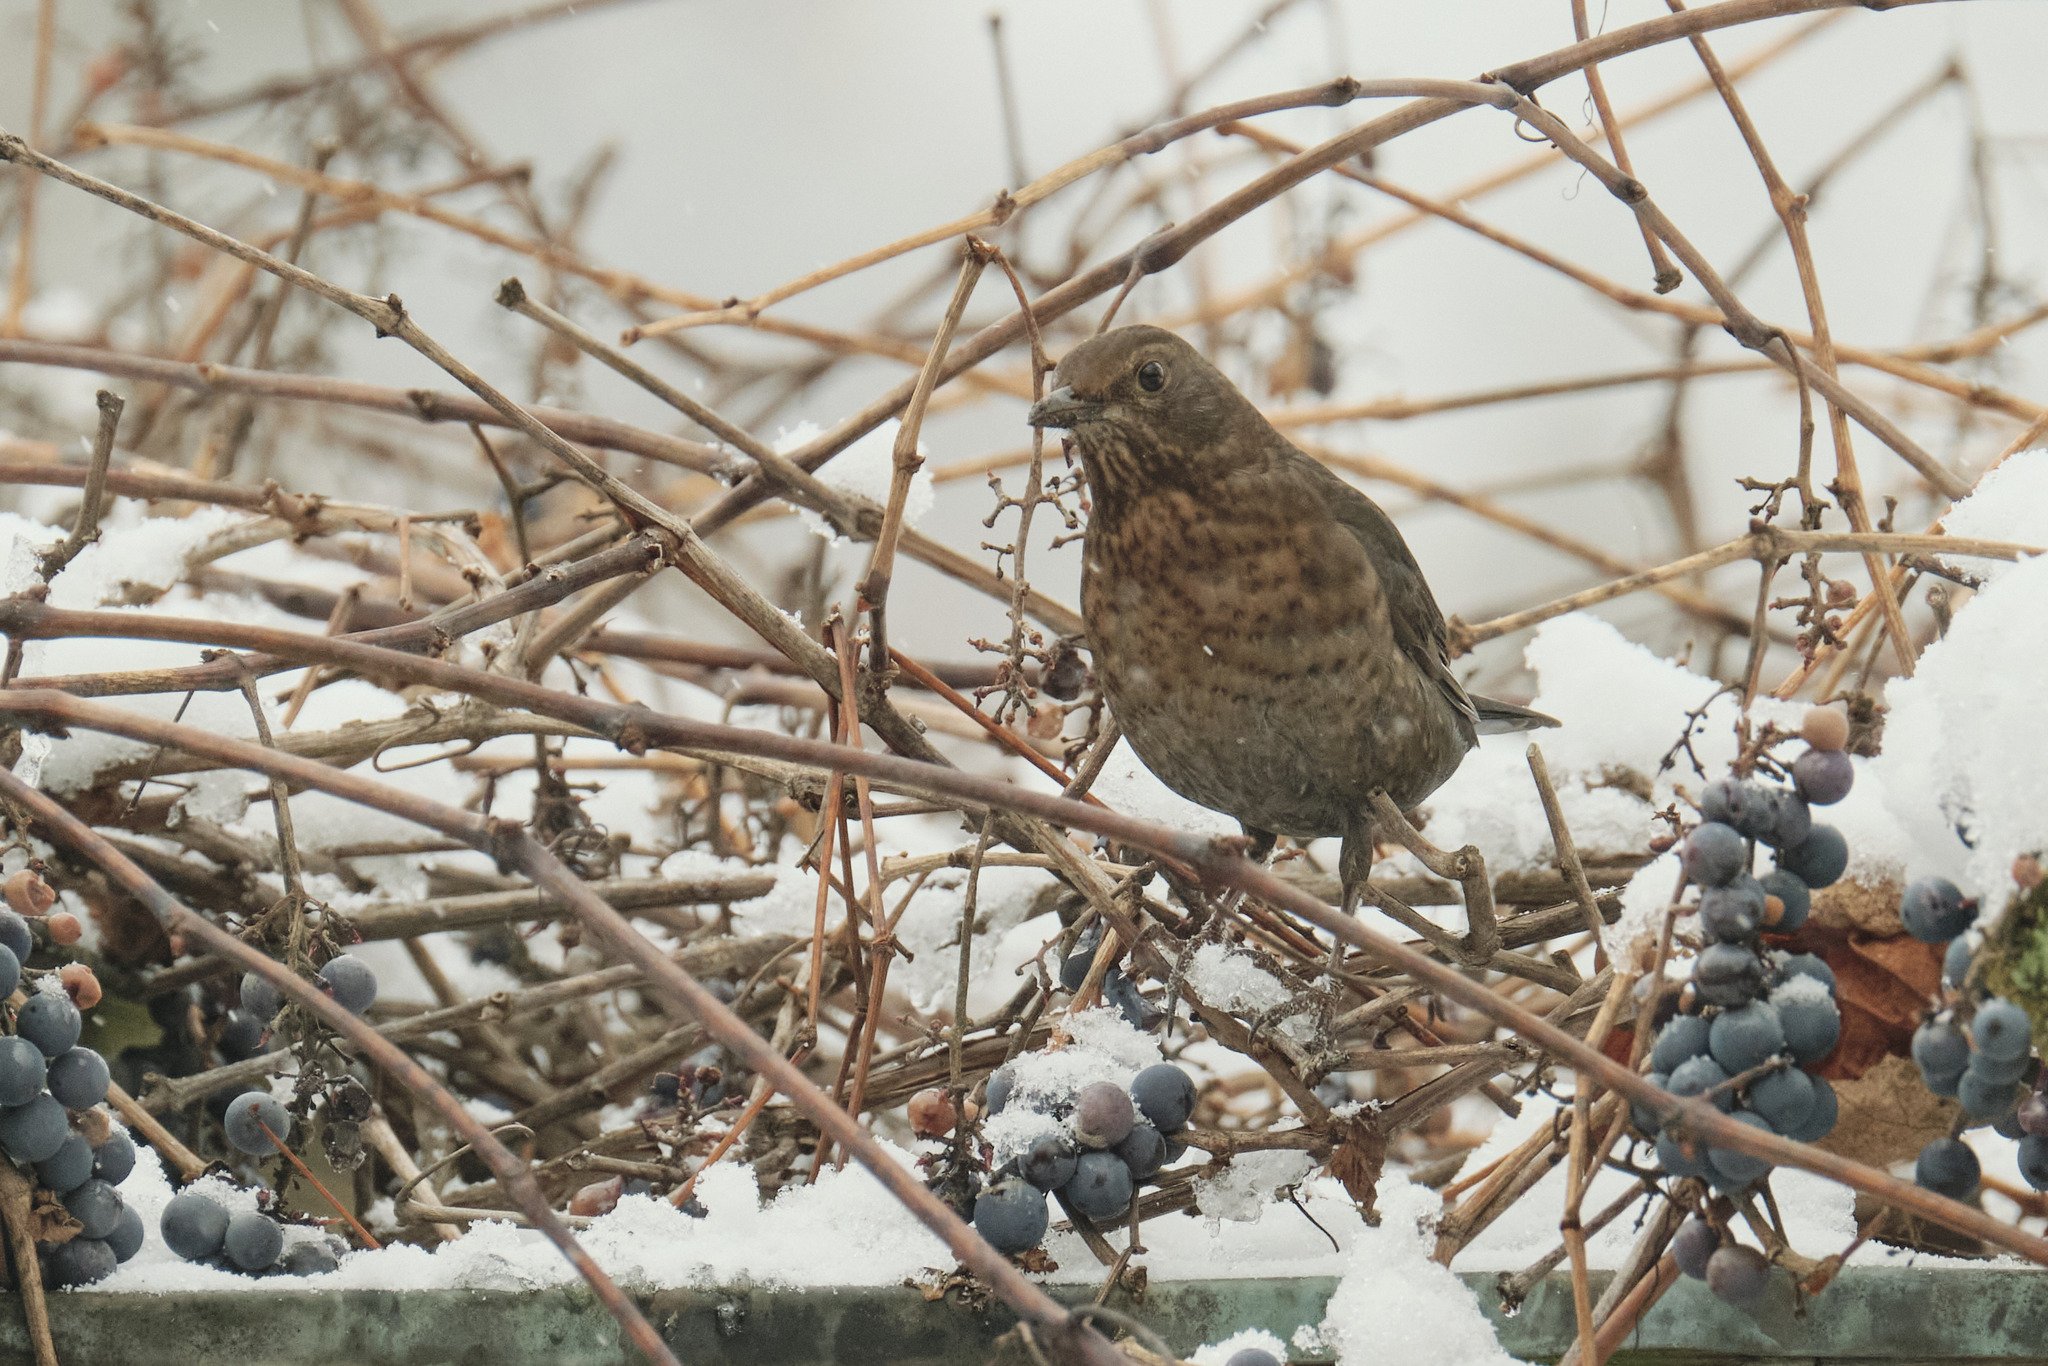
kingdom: Animalia
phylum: Chordata
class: Aves
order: Passeriformes
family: Turdidae
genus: Turdus
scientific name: Turdus merula
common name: Common blackbird
